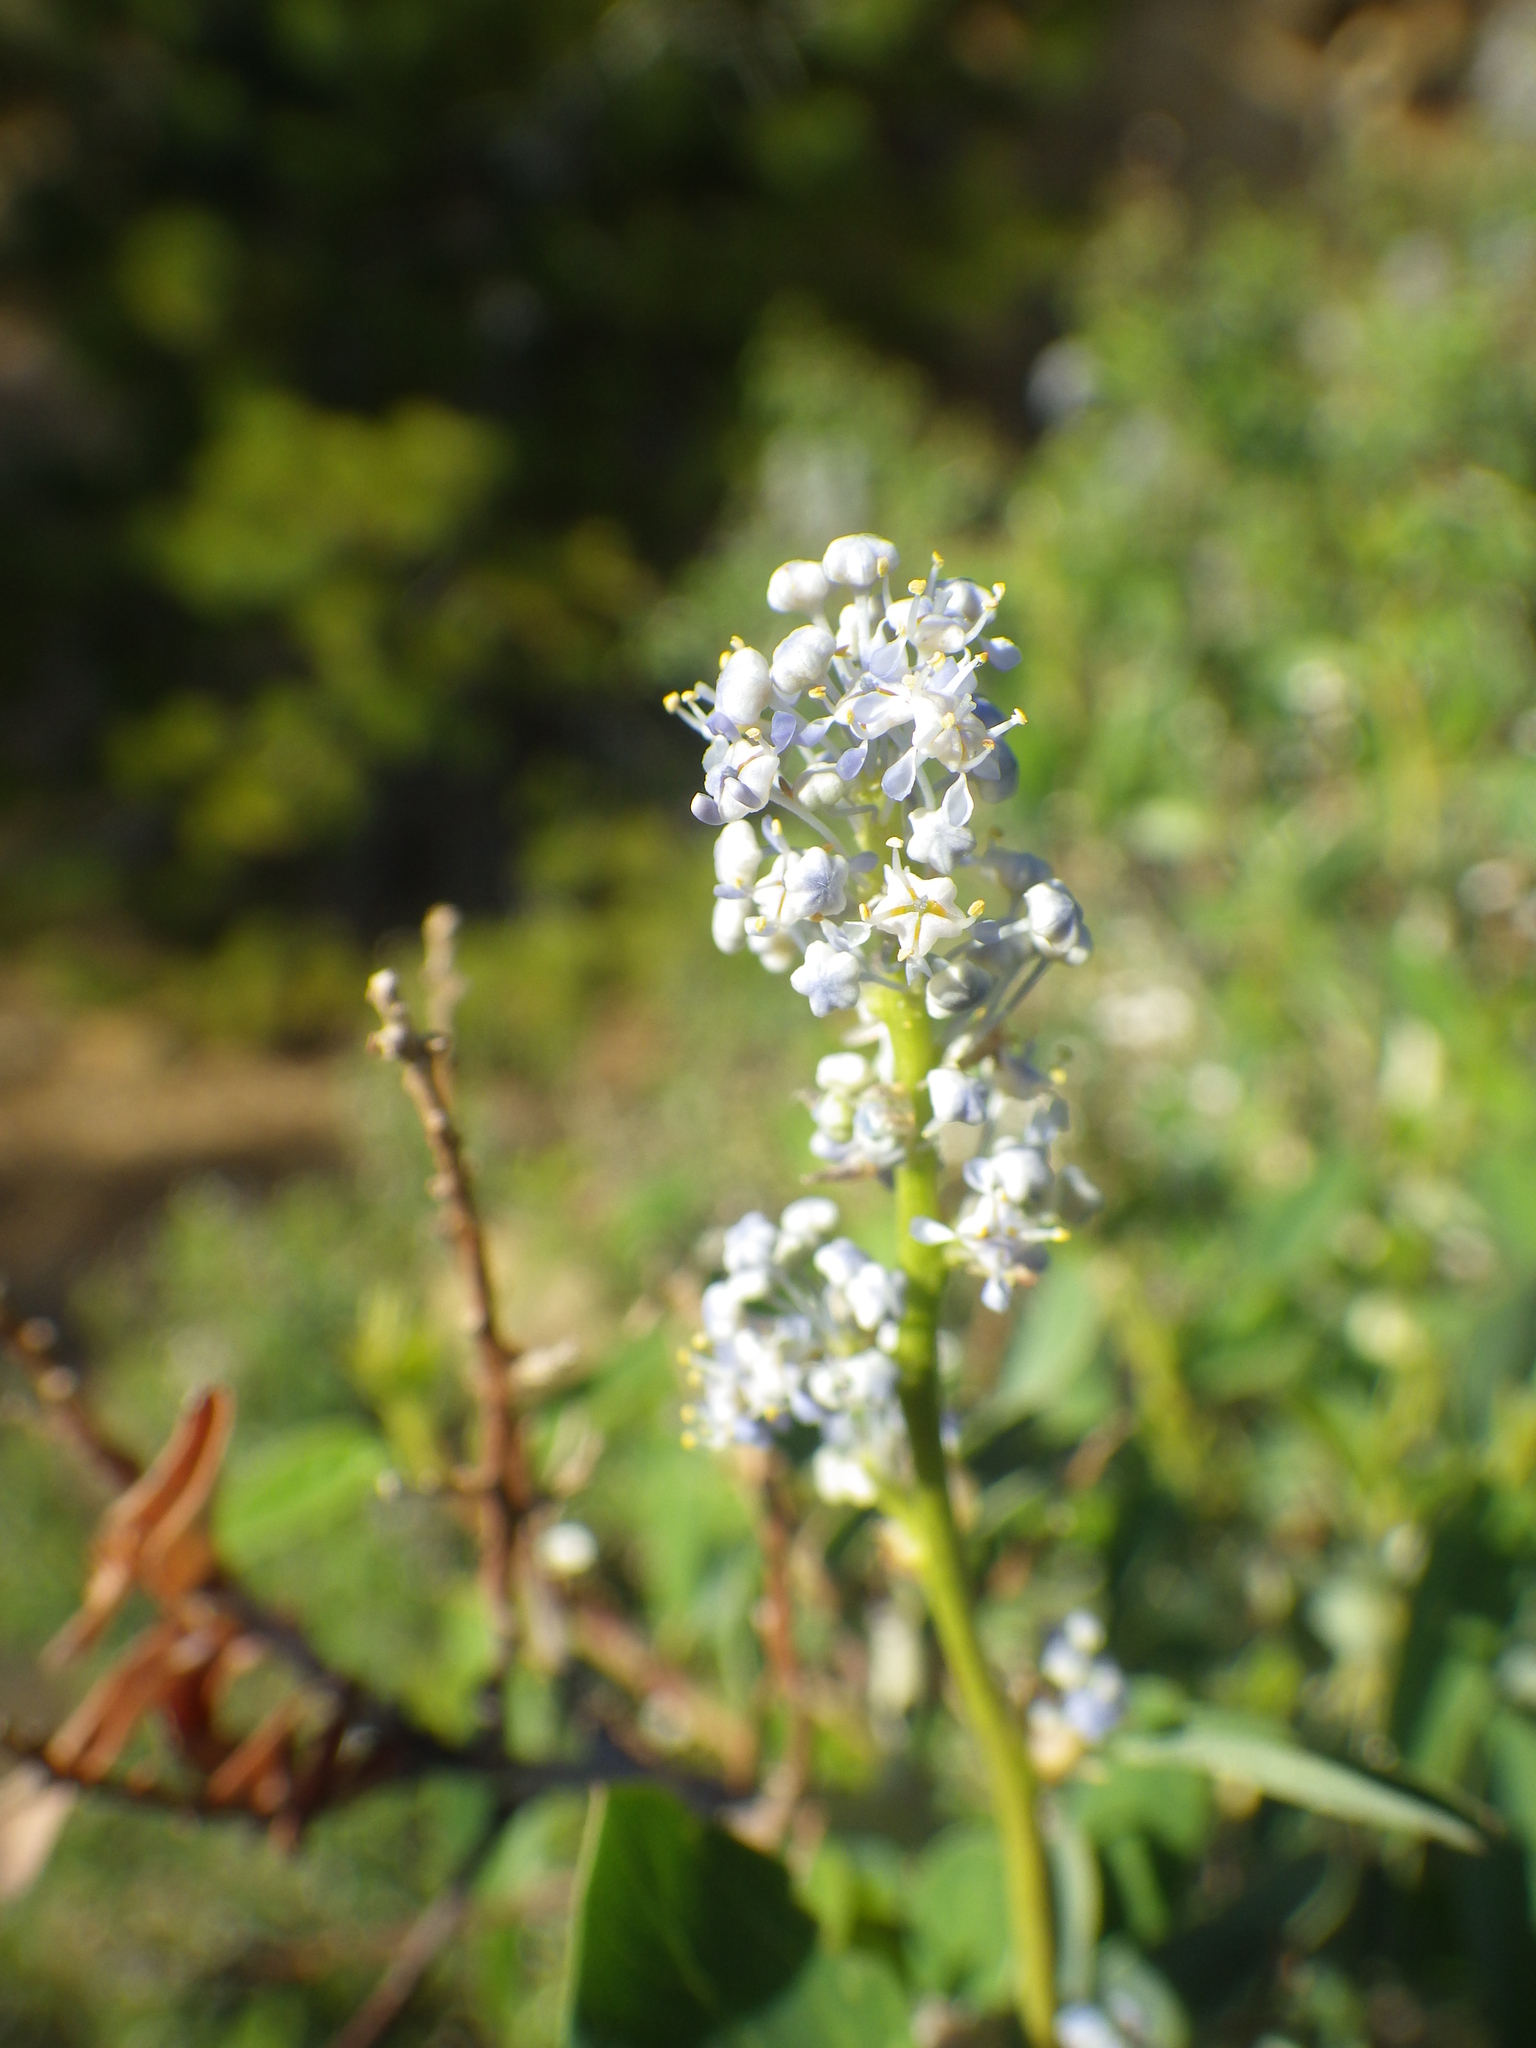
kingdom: Plantae
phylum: Tracheophyta
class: Magnoliopsida
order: Rosales
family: Rhamnaceae
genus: Ceanothus
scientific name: Ceanothus leucodermis
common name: Chaparral whitethorn
